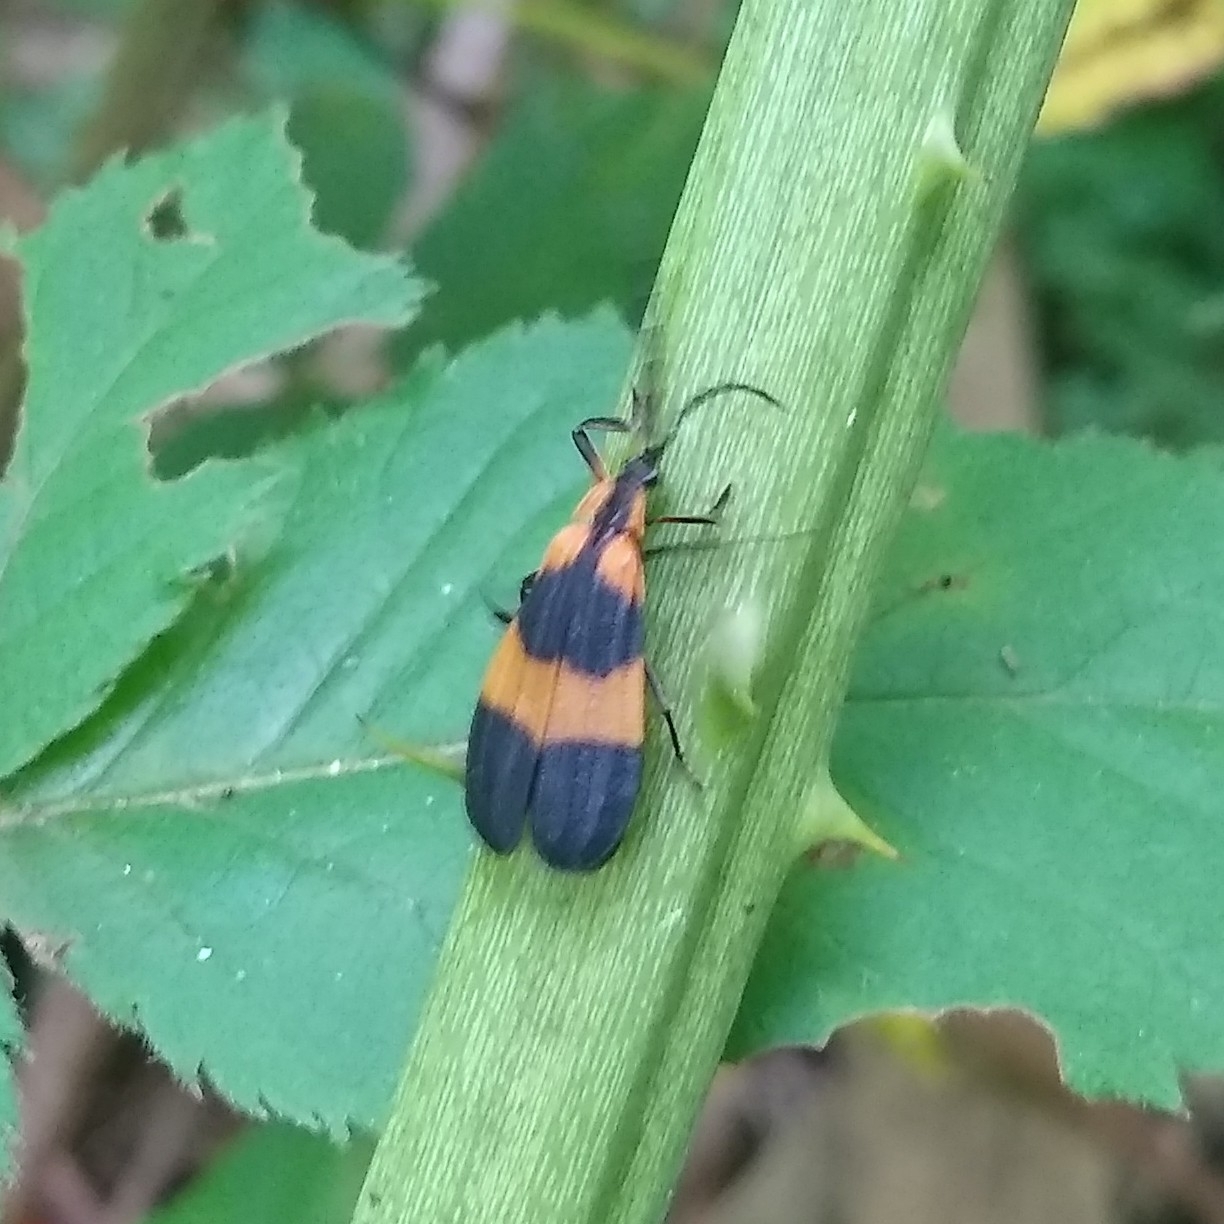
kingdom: Animalia
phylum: Arthropoda
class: Insecta
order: Coleoptera
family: Lycidae
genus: Calopteron
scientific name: Calopteron reticulatum
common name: Banded net-winged beetle
